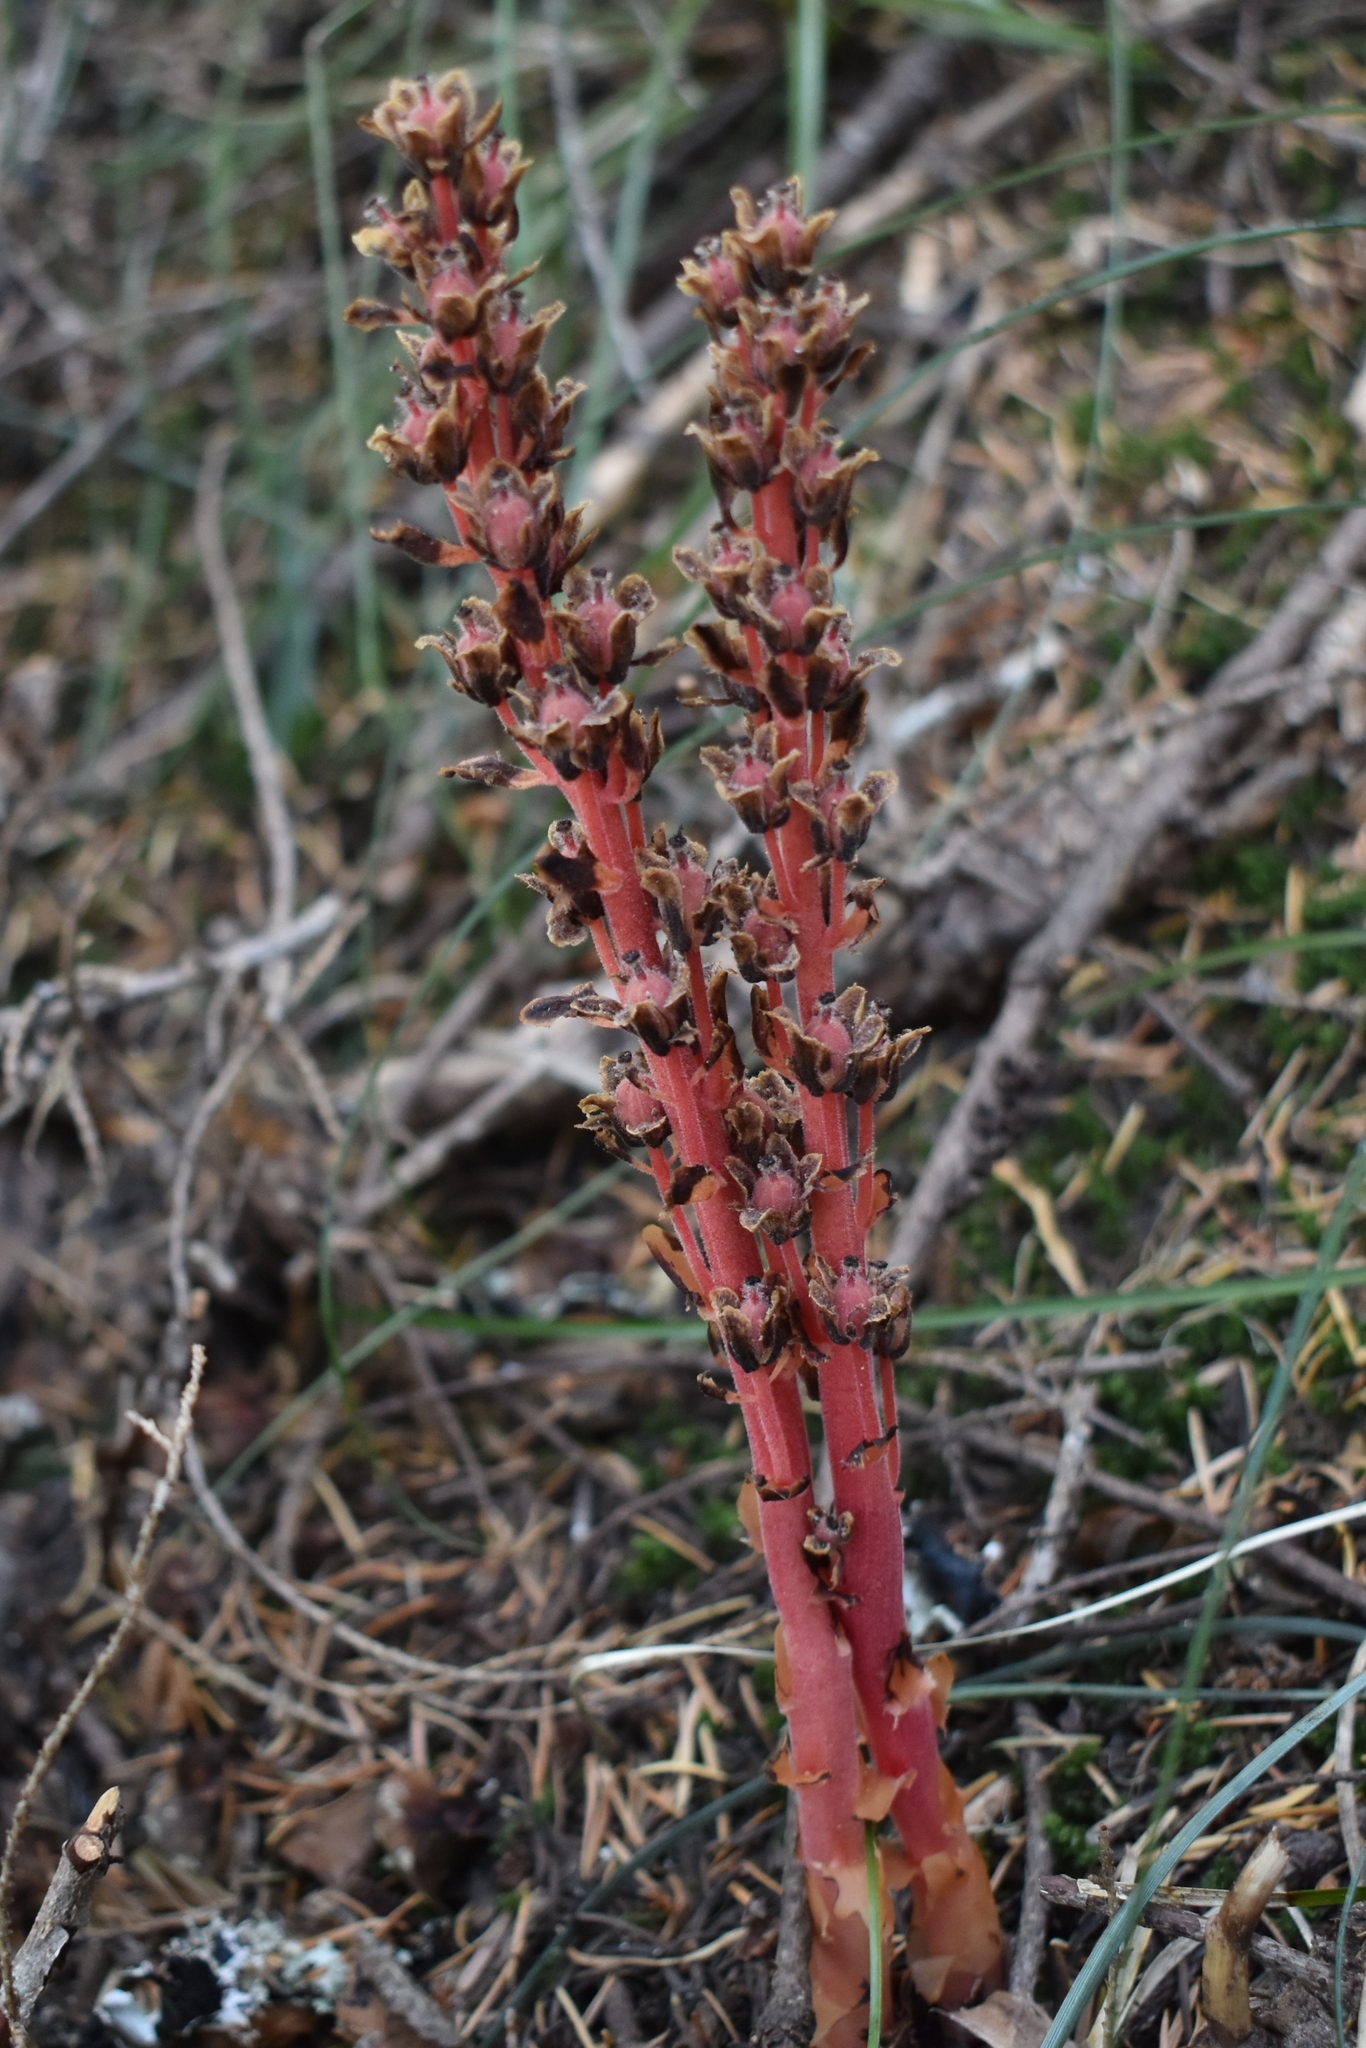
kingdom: Plantae
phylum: Tracheophyta
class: Magnoliopsida
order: Ericales
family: Ericaceae
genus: Hypopitys
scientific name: Hypopitys monotropa
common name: Yellow bird's-nest
